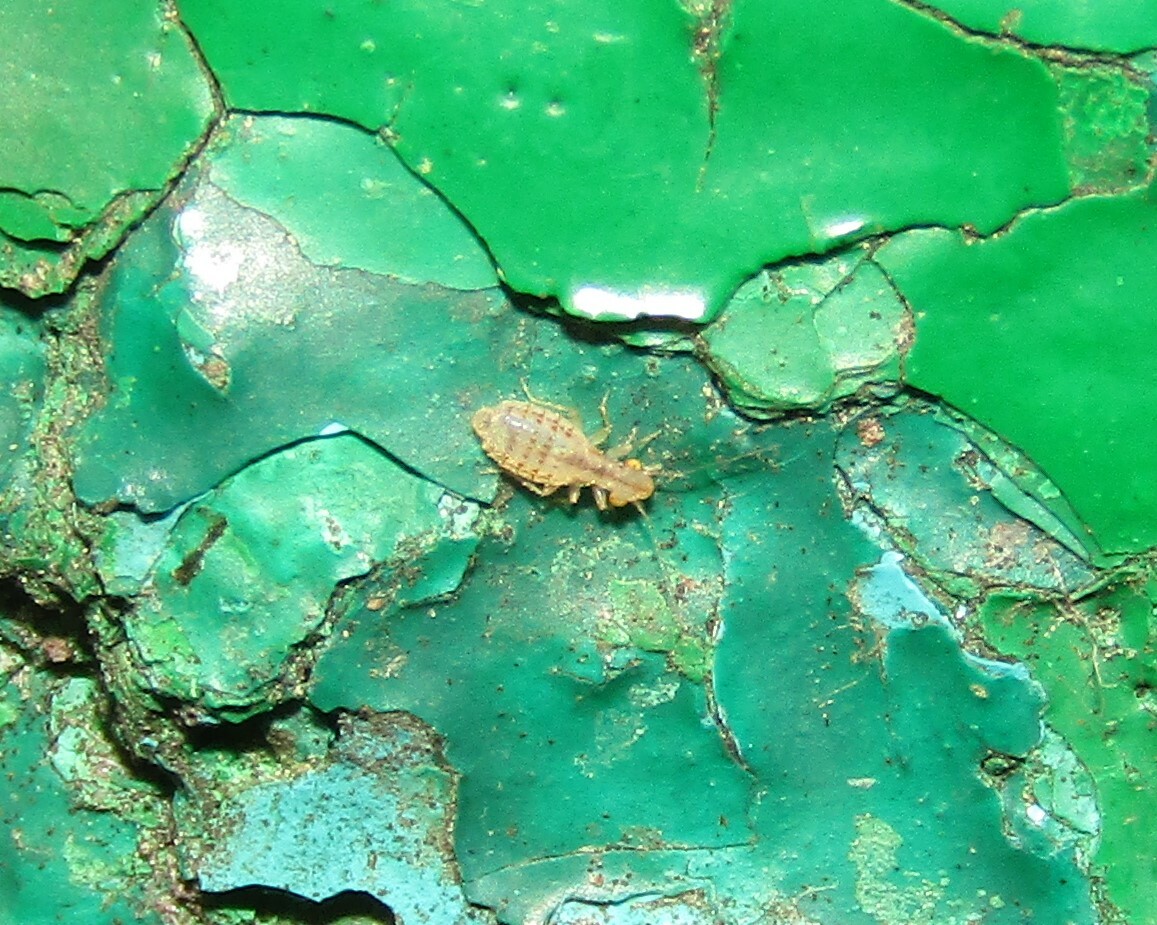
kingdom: Animalia
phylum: Arthropoda
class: Insecta
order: Psocodea
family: Trogiidae
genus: Trogium
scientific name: Trogium pulsatorium
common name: Granary book louse
